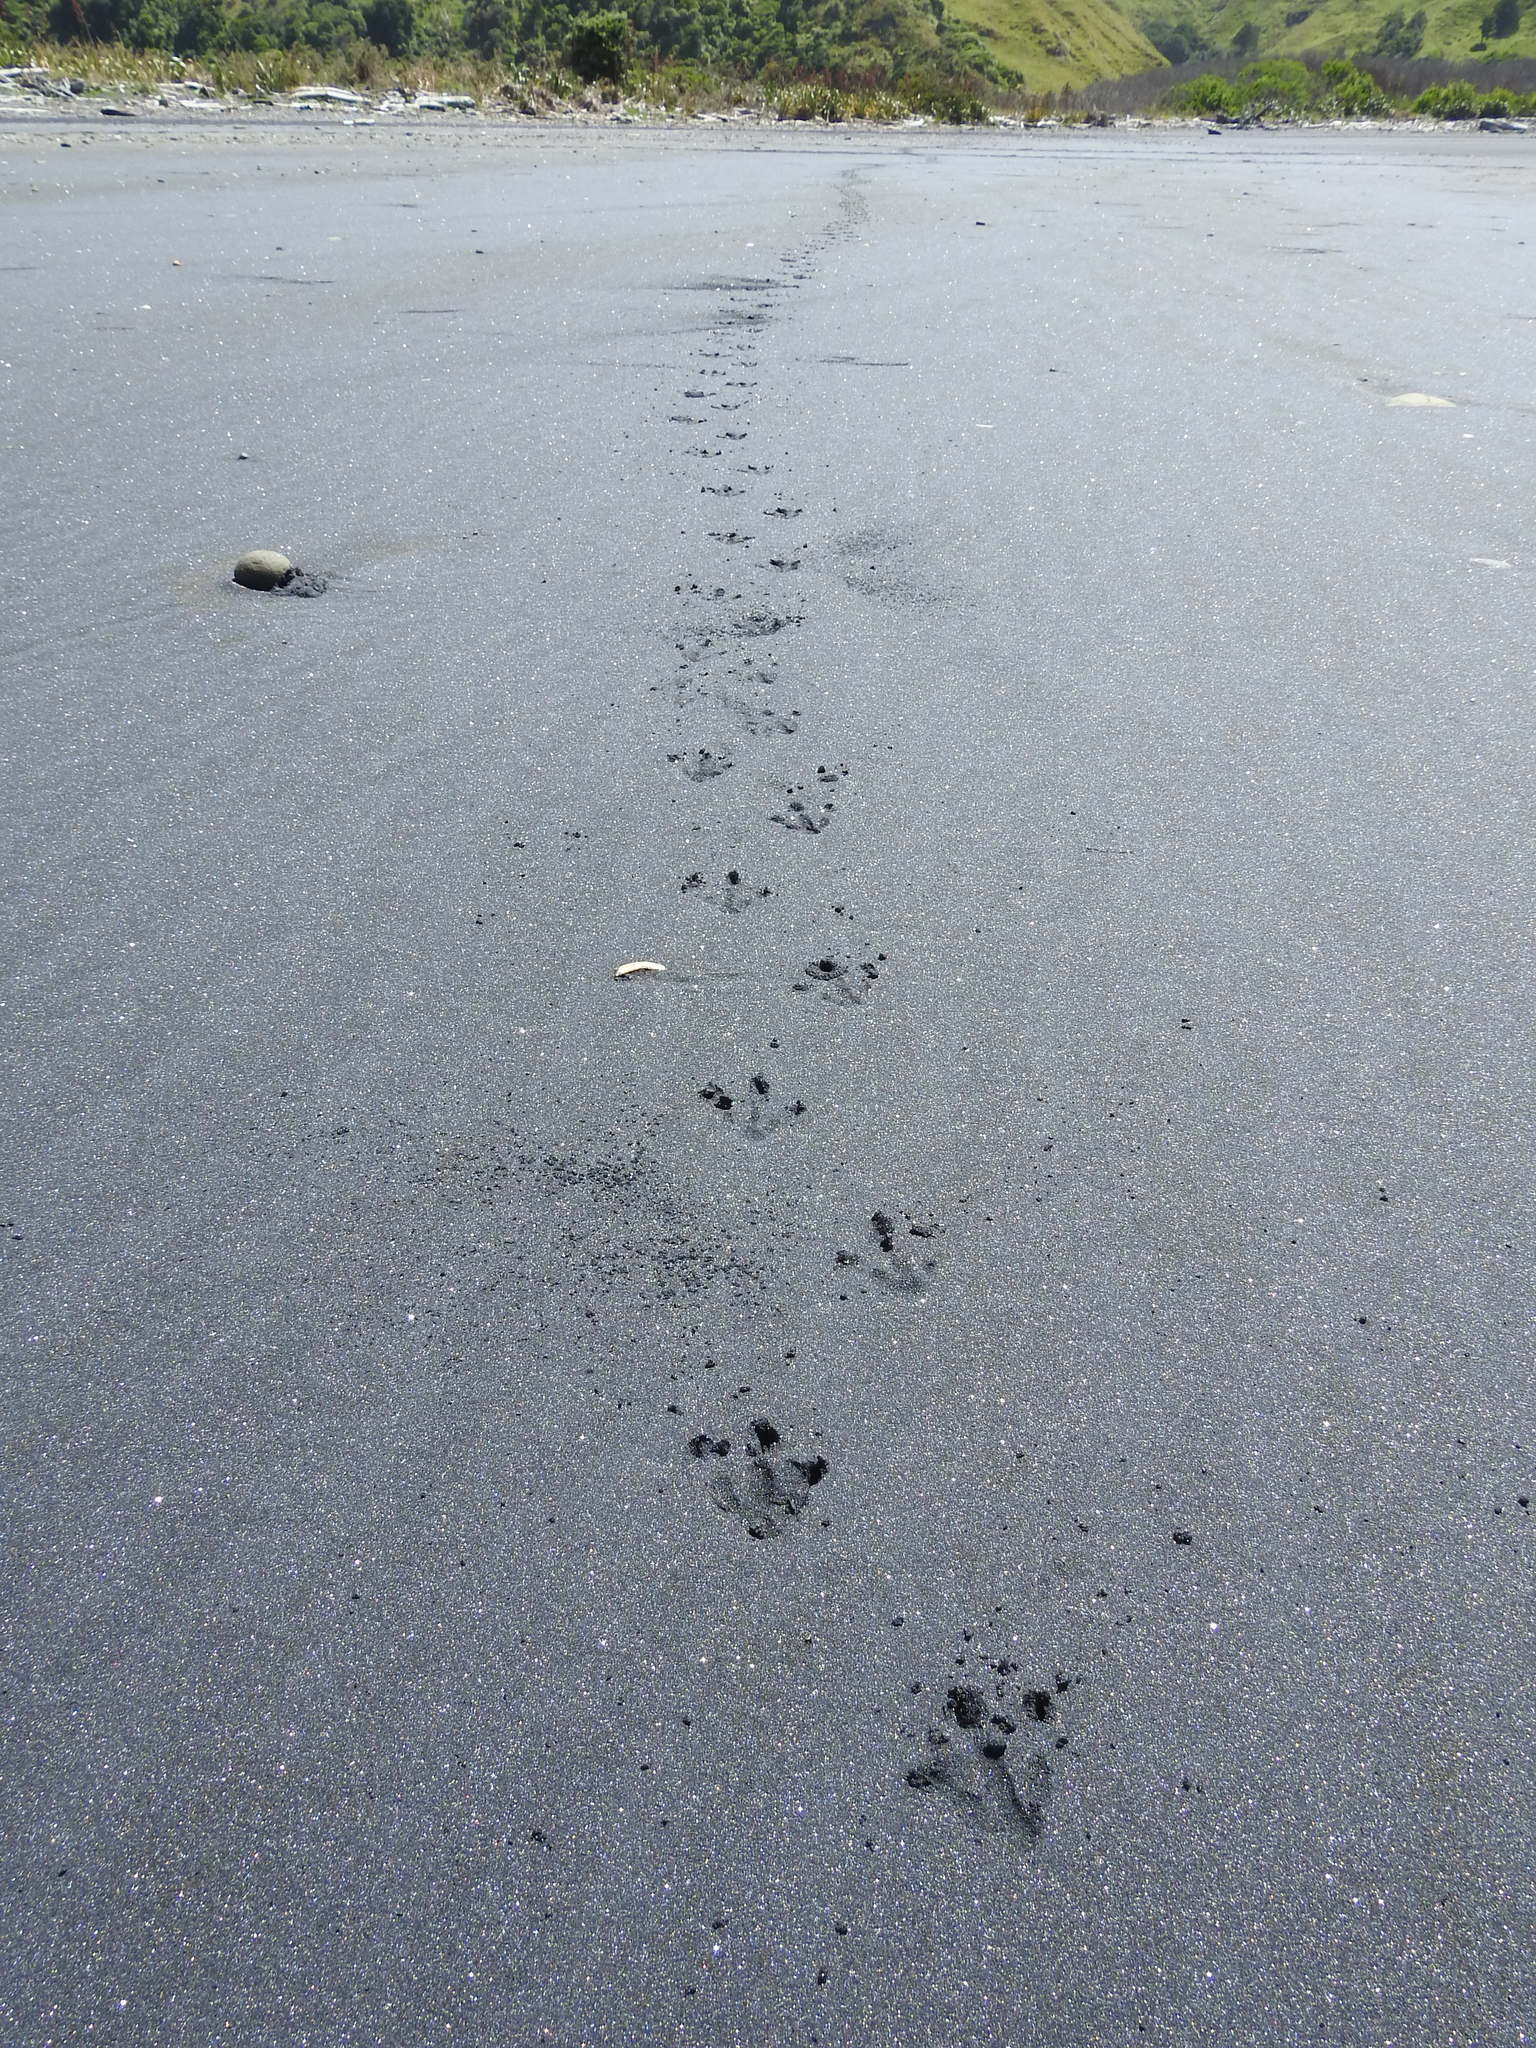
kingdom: Animalia
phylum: Chordata
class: Aves
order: Sphenisciformes
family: Spheniscidae
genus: Eudyptula
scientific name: Eudyptula minor
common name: Little penguin
